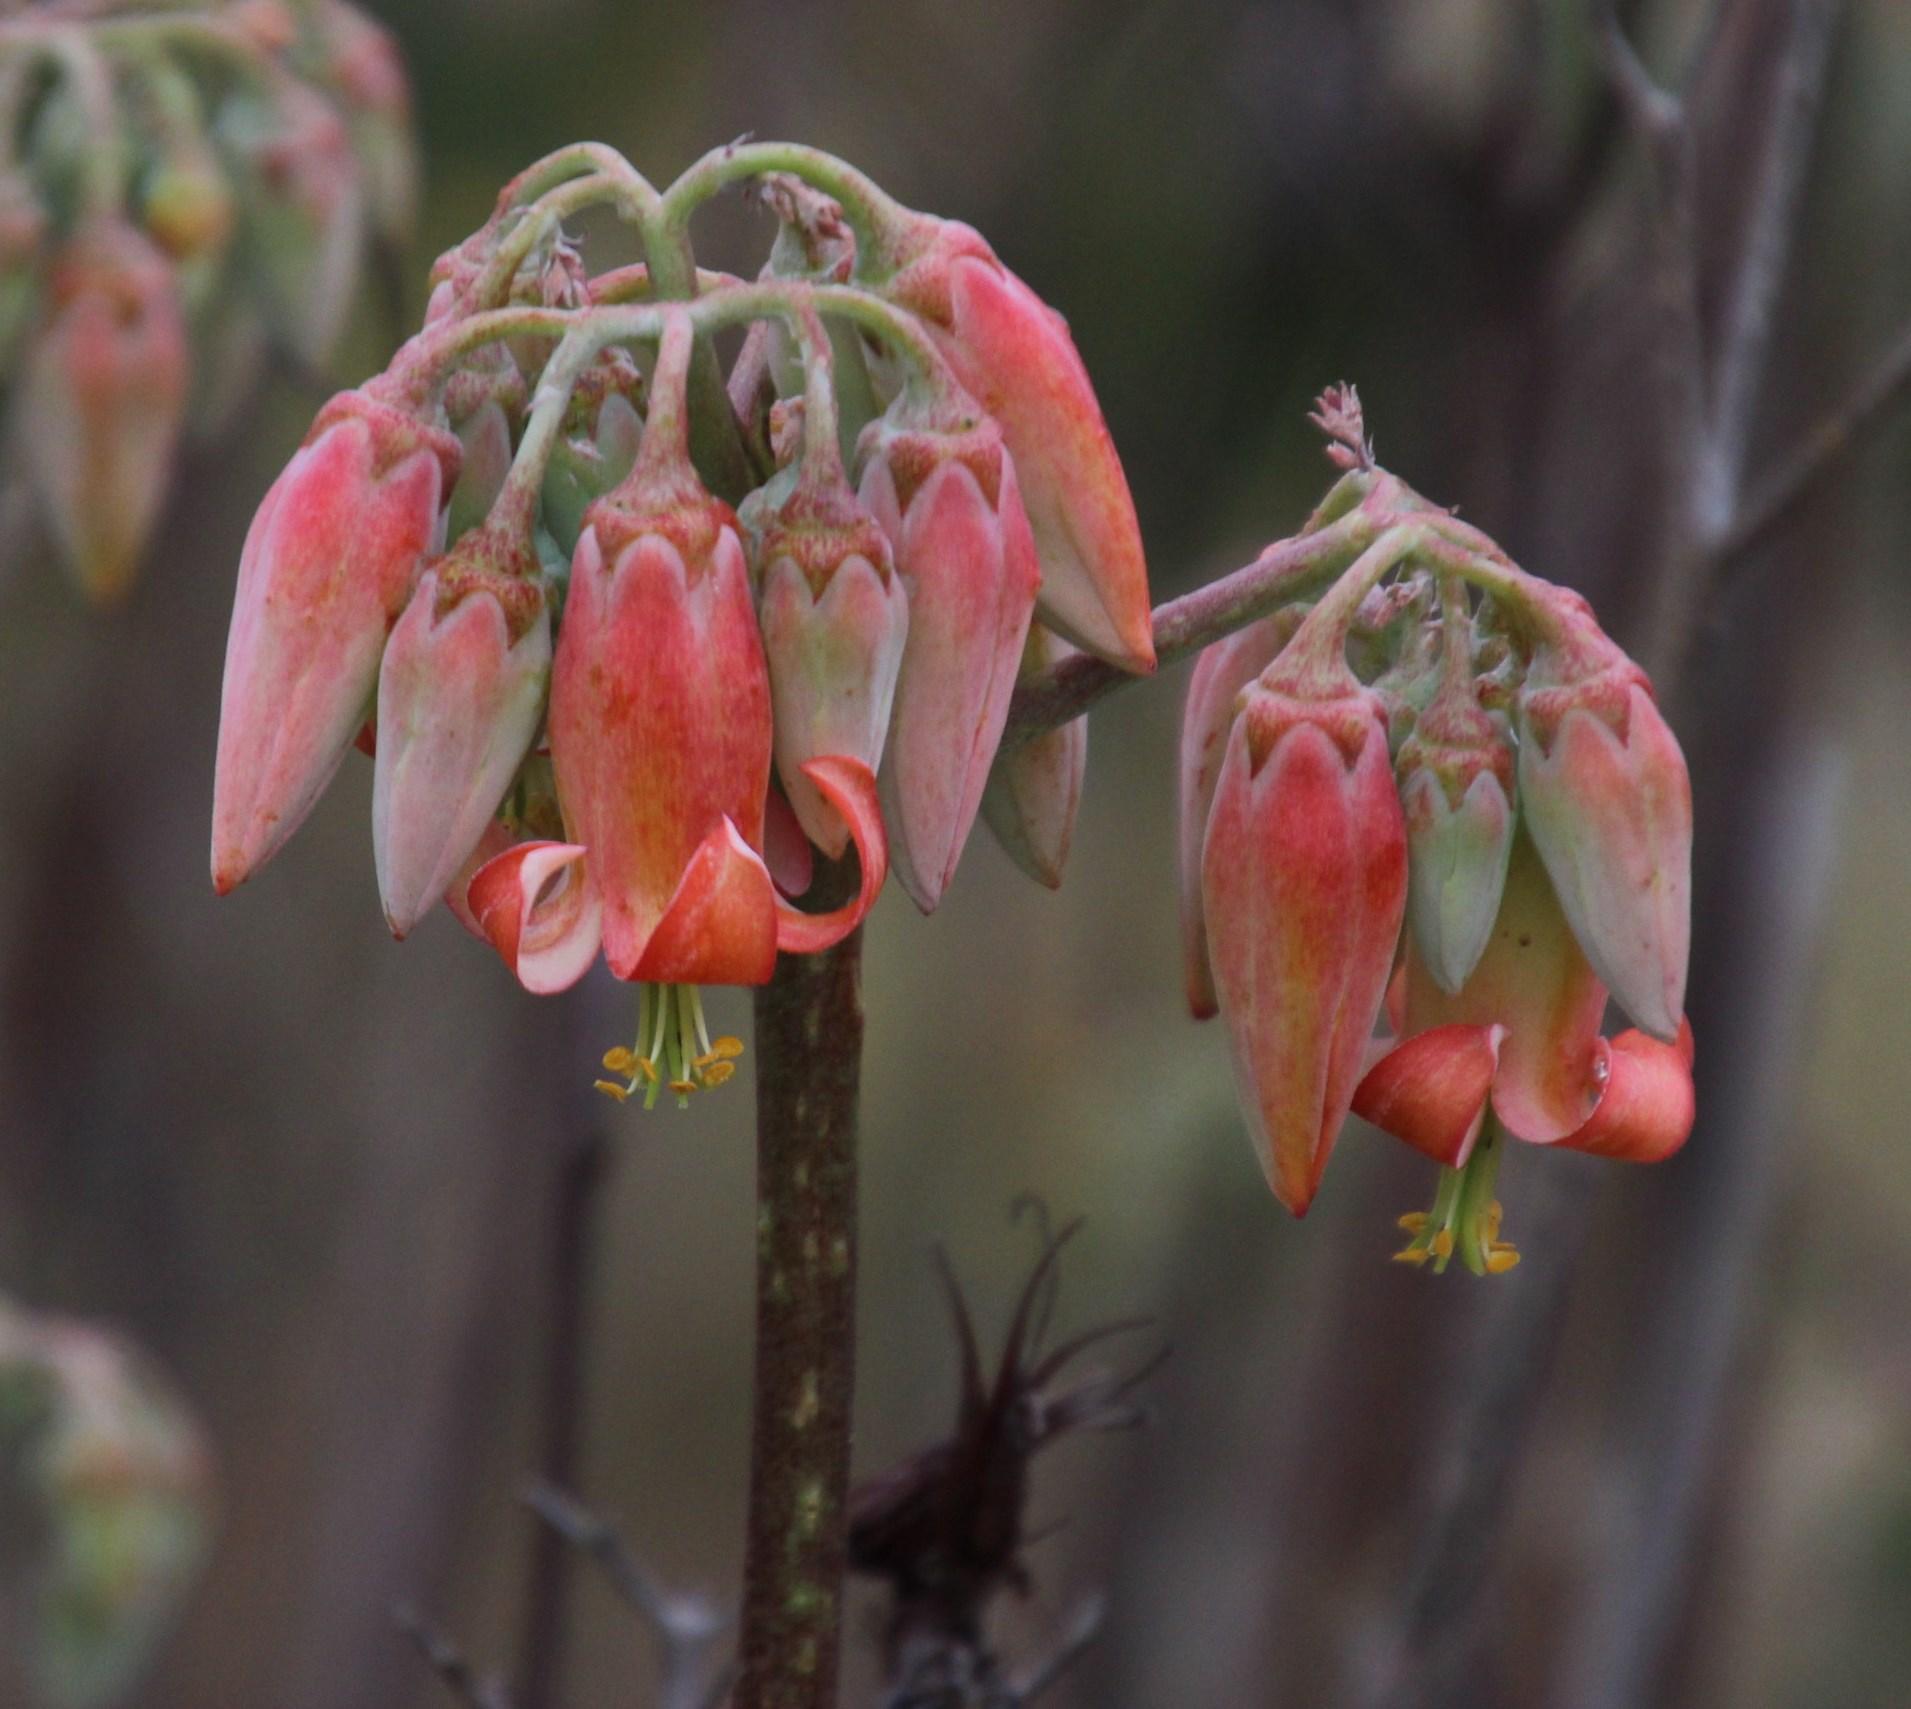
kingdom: Plantae
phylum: Tracheophyta
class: Magnoliopsida
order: Saxifragales
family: Crassulaceae
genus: Cotyledon
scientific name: Cotyledon orbiculata
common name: Pig's ear
